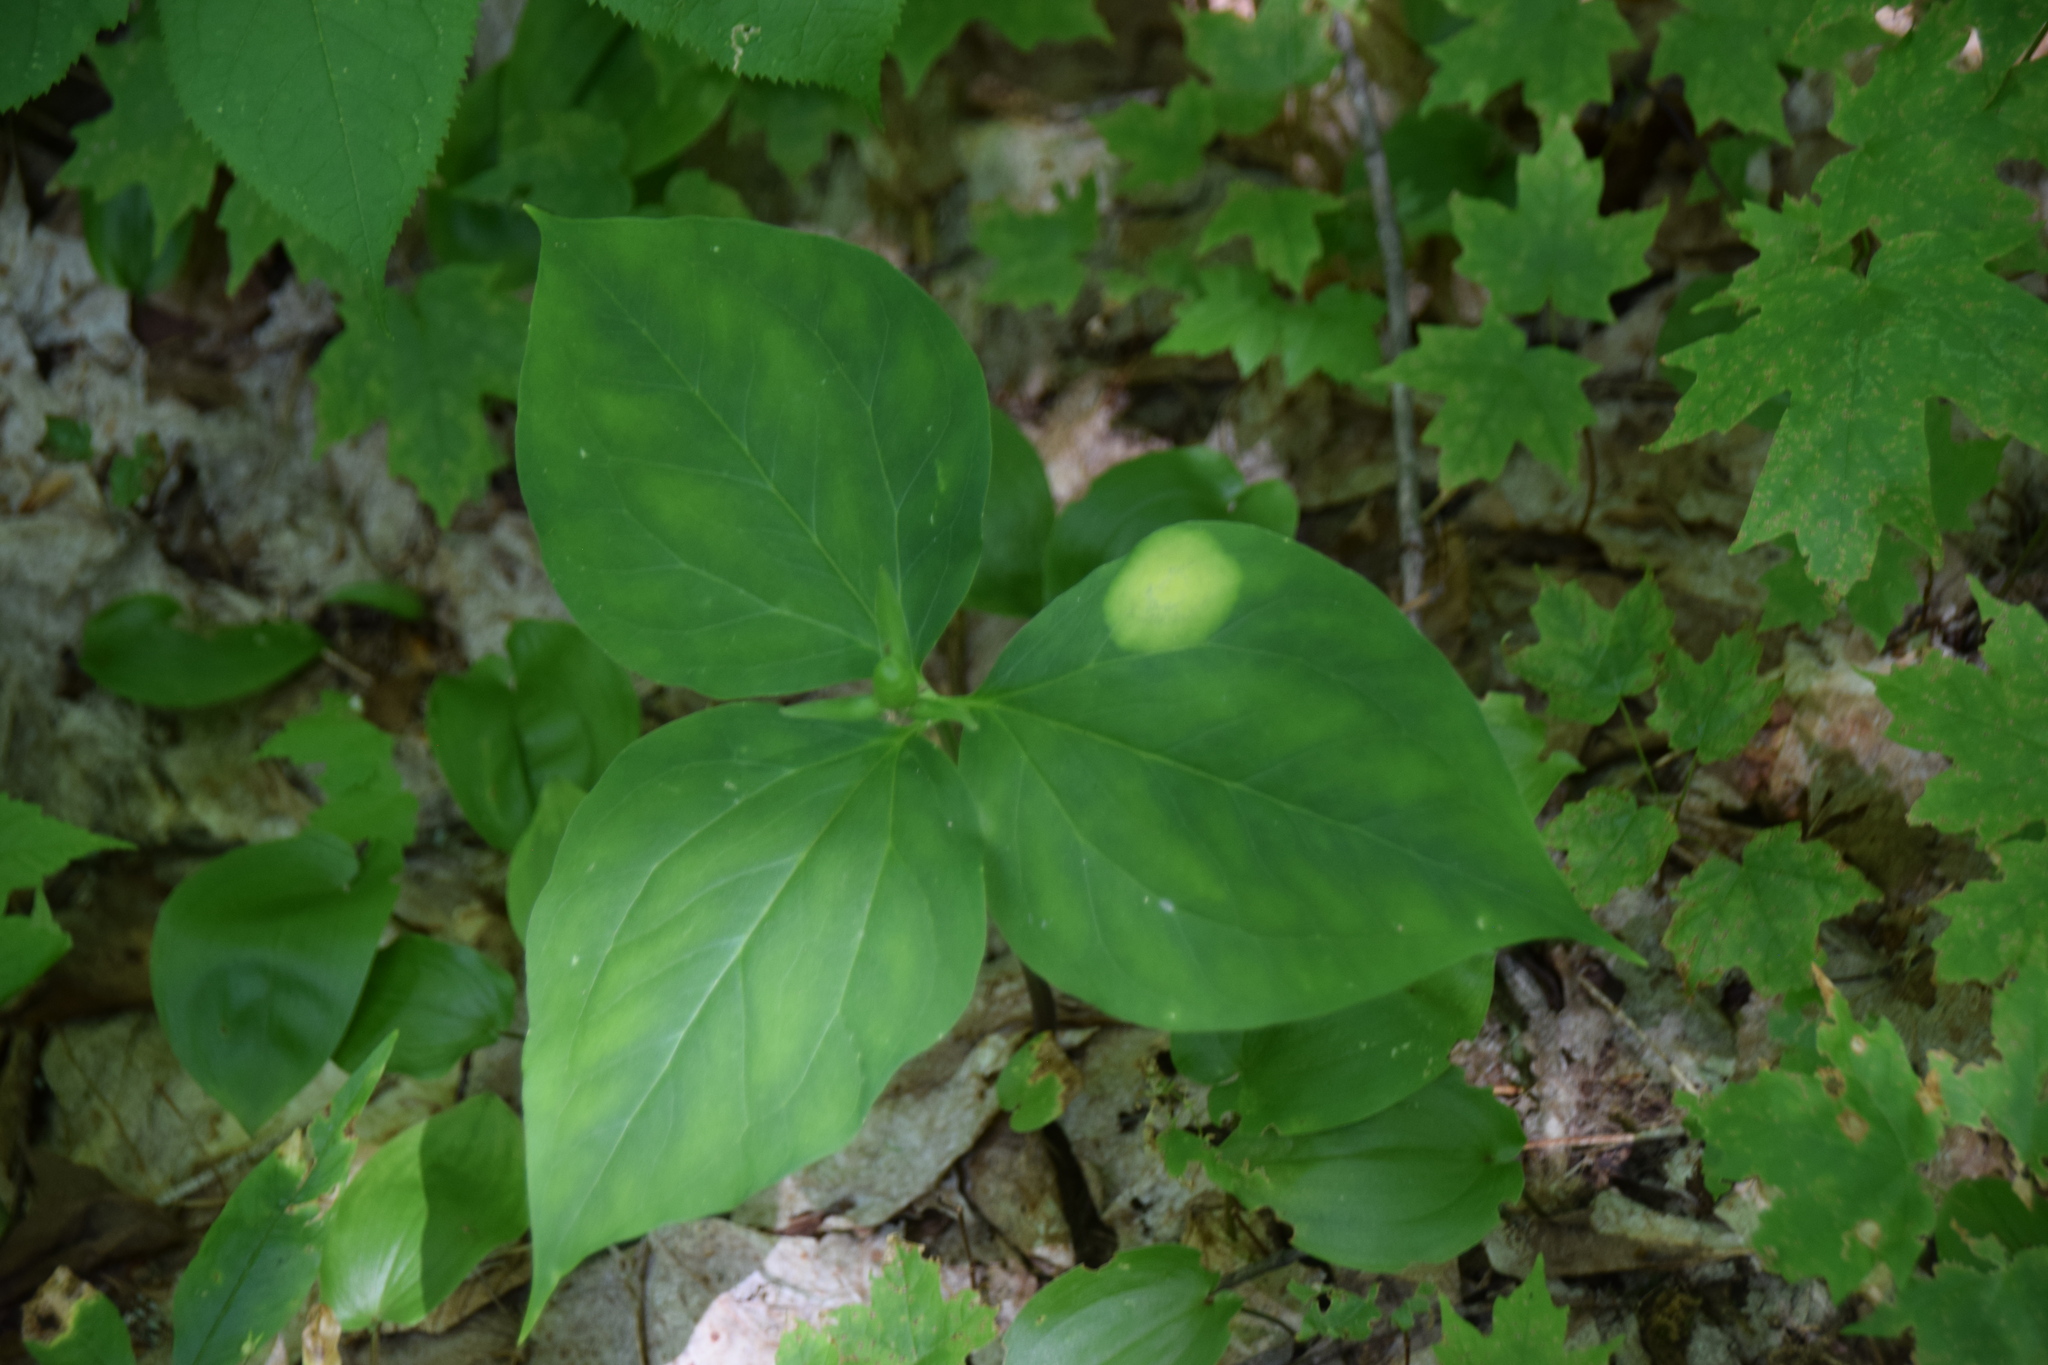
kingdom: Plantae
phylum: Tracheophyta
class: Liliopsida
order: Liliales
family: Melanthiaceae
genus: Trillium
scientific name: Trillium undulatum
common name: Paint trillium
